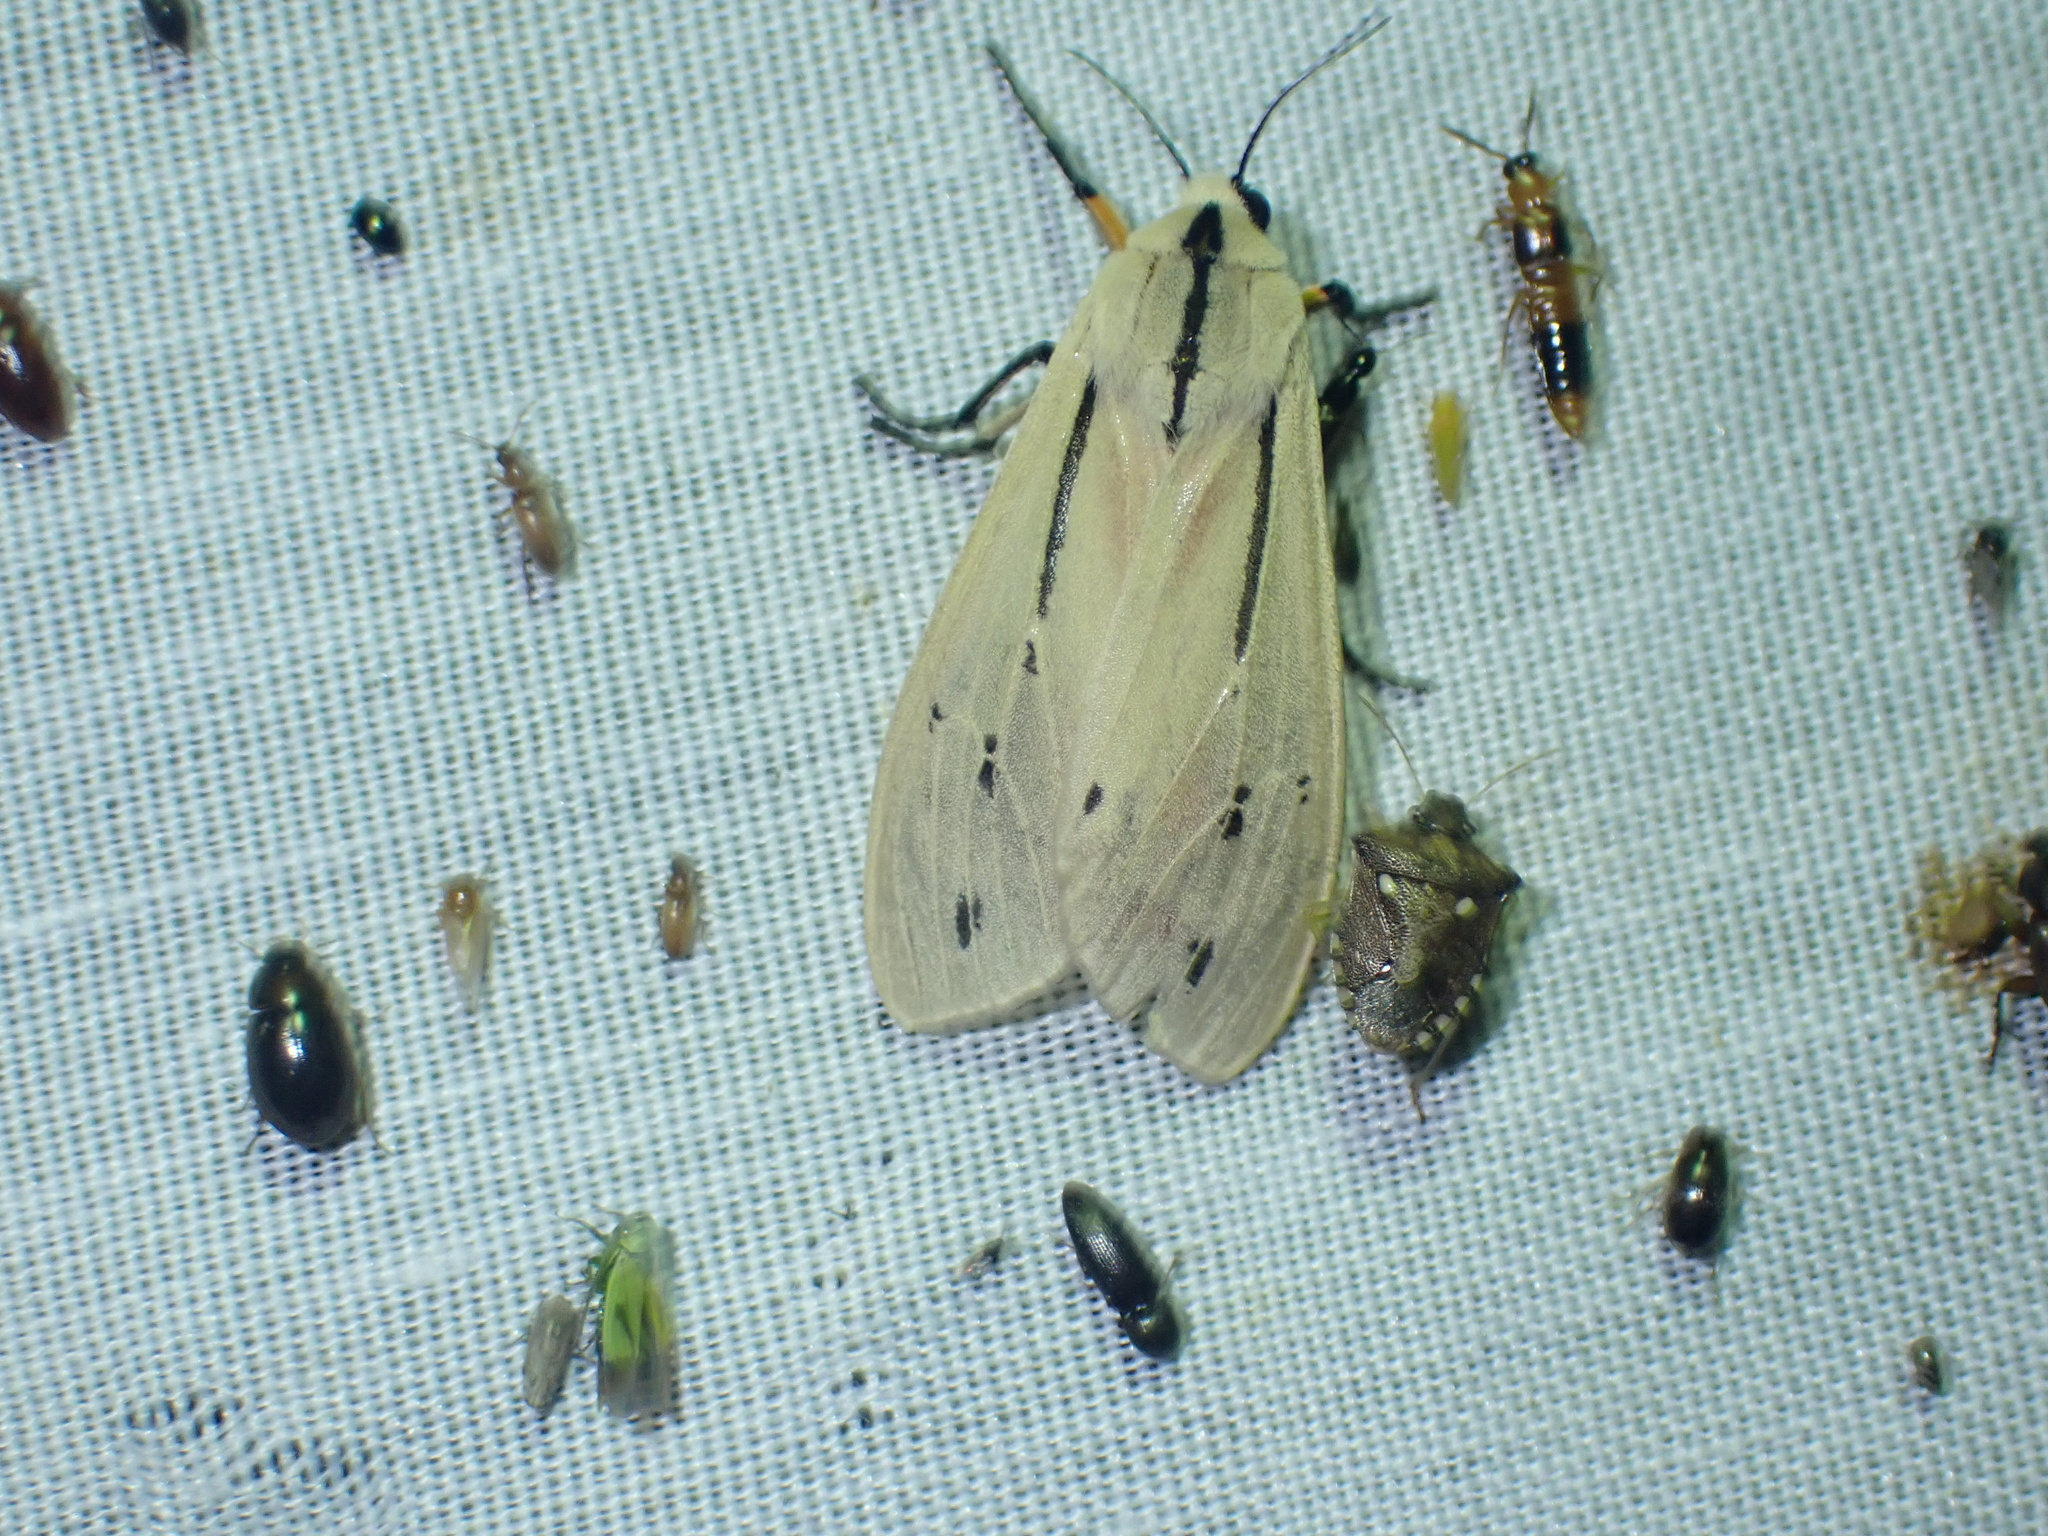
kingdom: Animalia
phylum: Arthropoda
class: Insecta
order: Lepidoptera
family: Erebidae
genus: Creatonotos
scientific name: Creatonotos leucanioides
